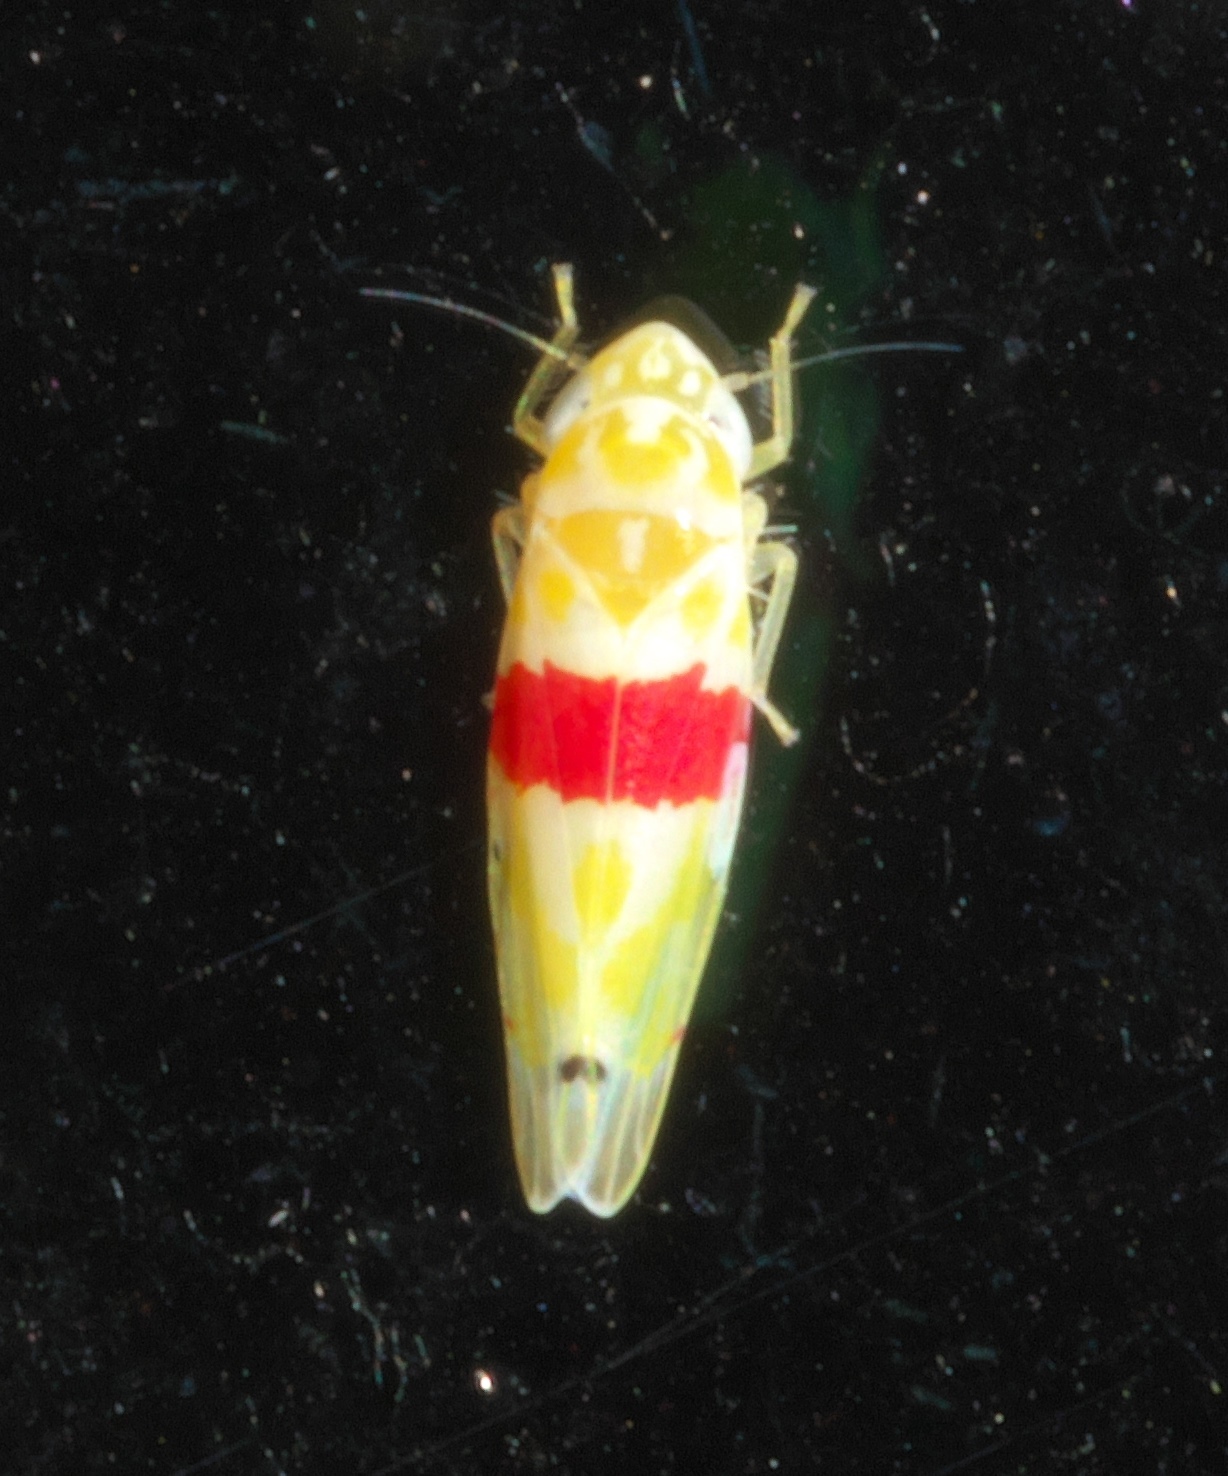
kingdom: Animalia
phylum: Arthropoda
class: Insecta
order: Hemiptera
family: Cicadellidae
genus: Eratoneura
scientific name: Eratoneura era
